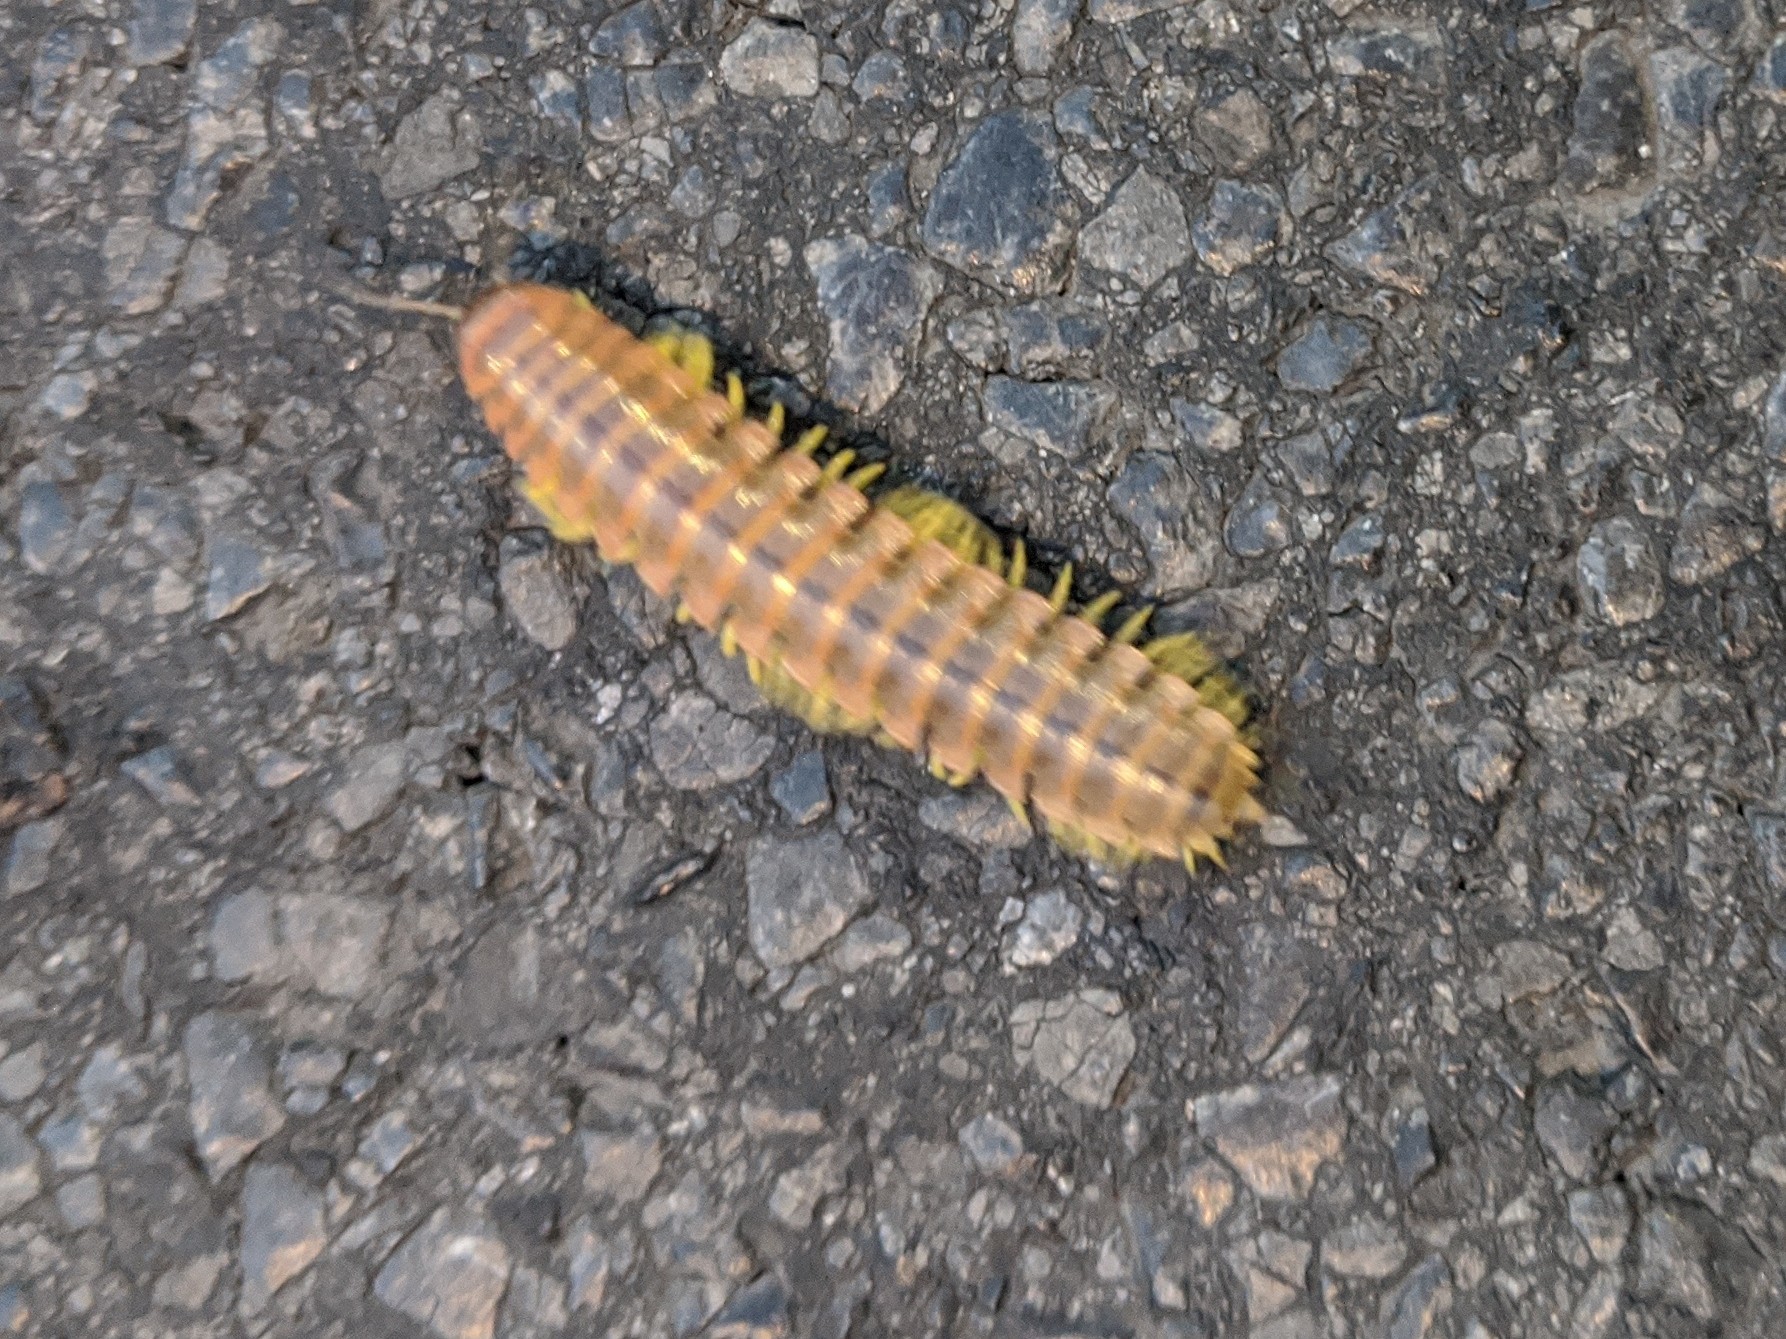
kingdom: Animalia
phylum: Arthropoda
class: Diplopoda
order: Polydesmida
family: Xystodesmidae
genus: Apheloria
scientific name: Apheloria virginiensis
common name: Black-and-gold flat millipede
